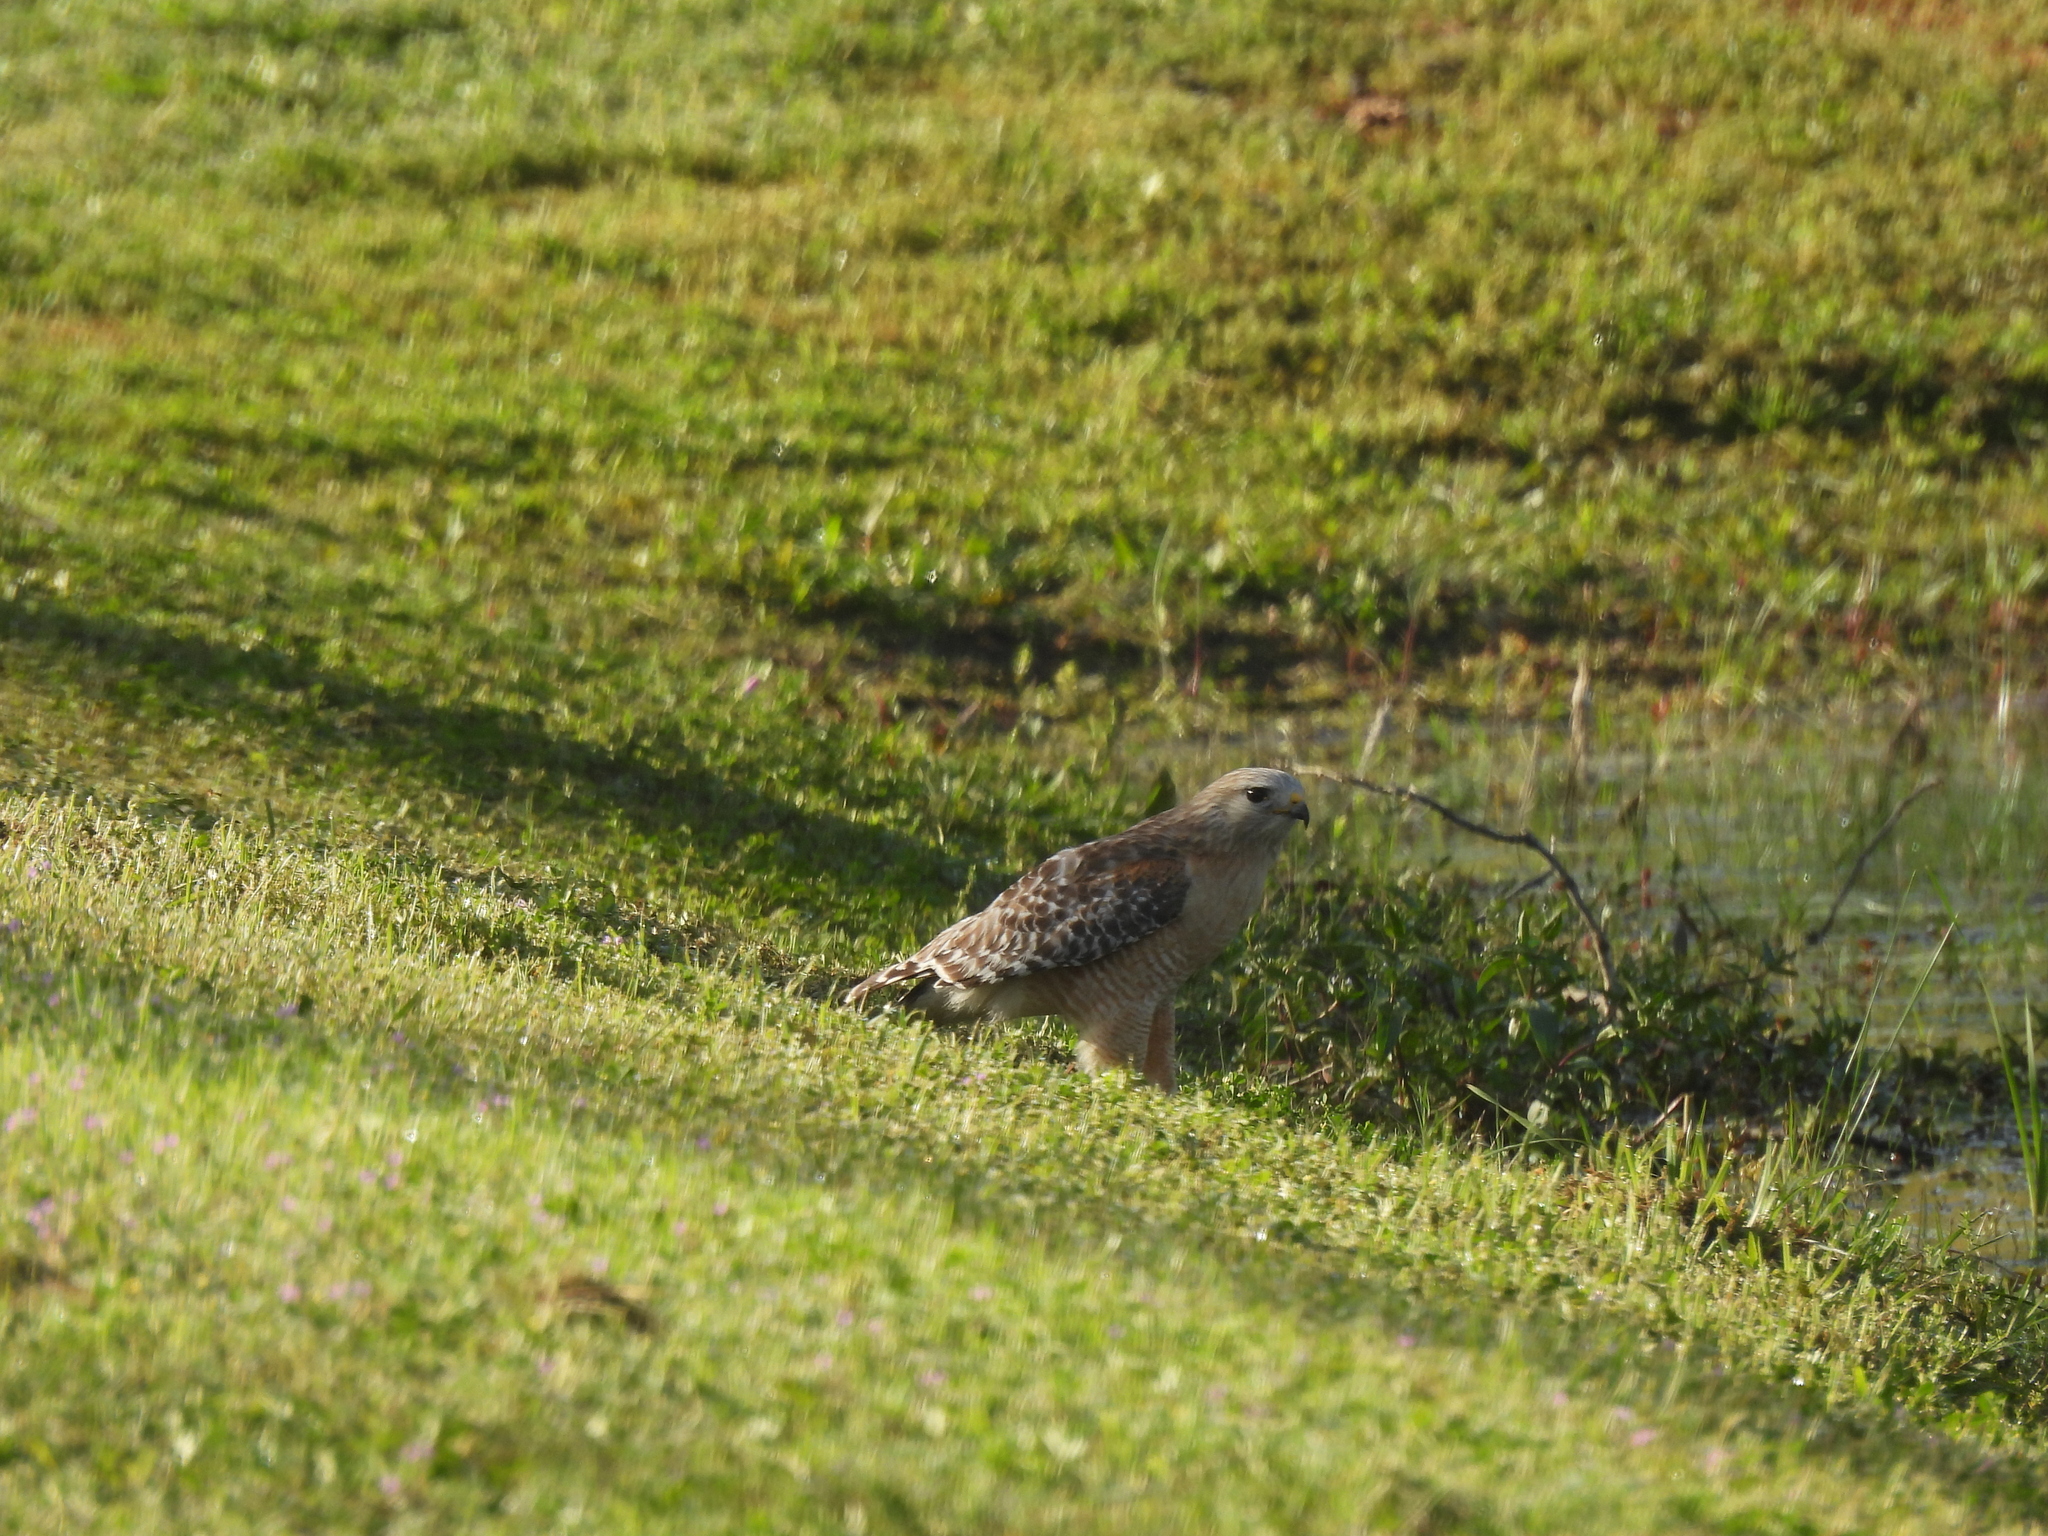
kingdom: Animalia
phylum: Chordata
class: Aves
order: Accipitriformes
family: Accipitridae
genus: Buteo
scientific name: Buteo lineatus
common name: Red-shouldered hawk
